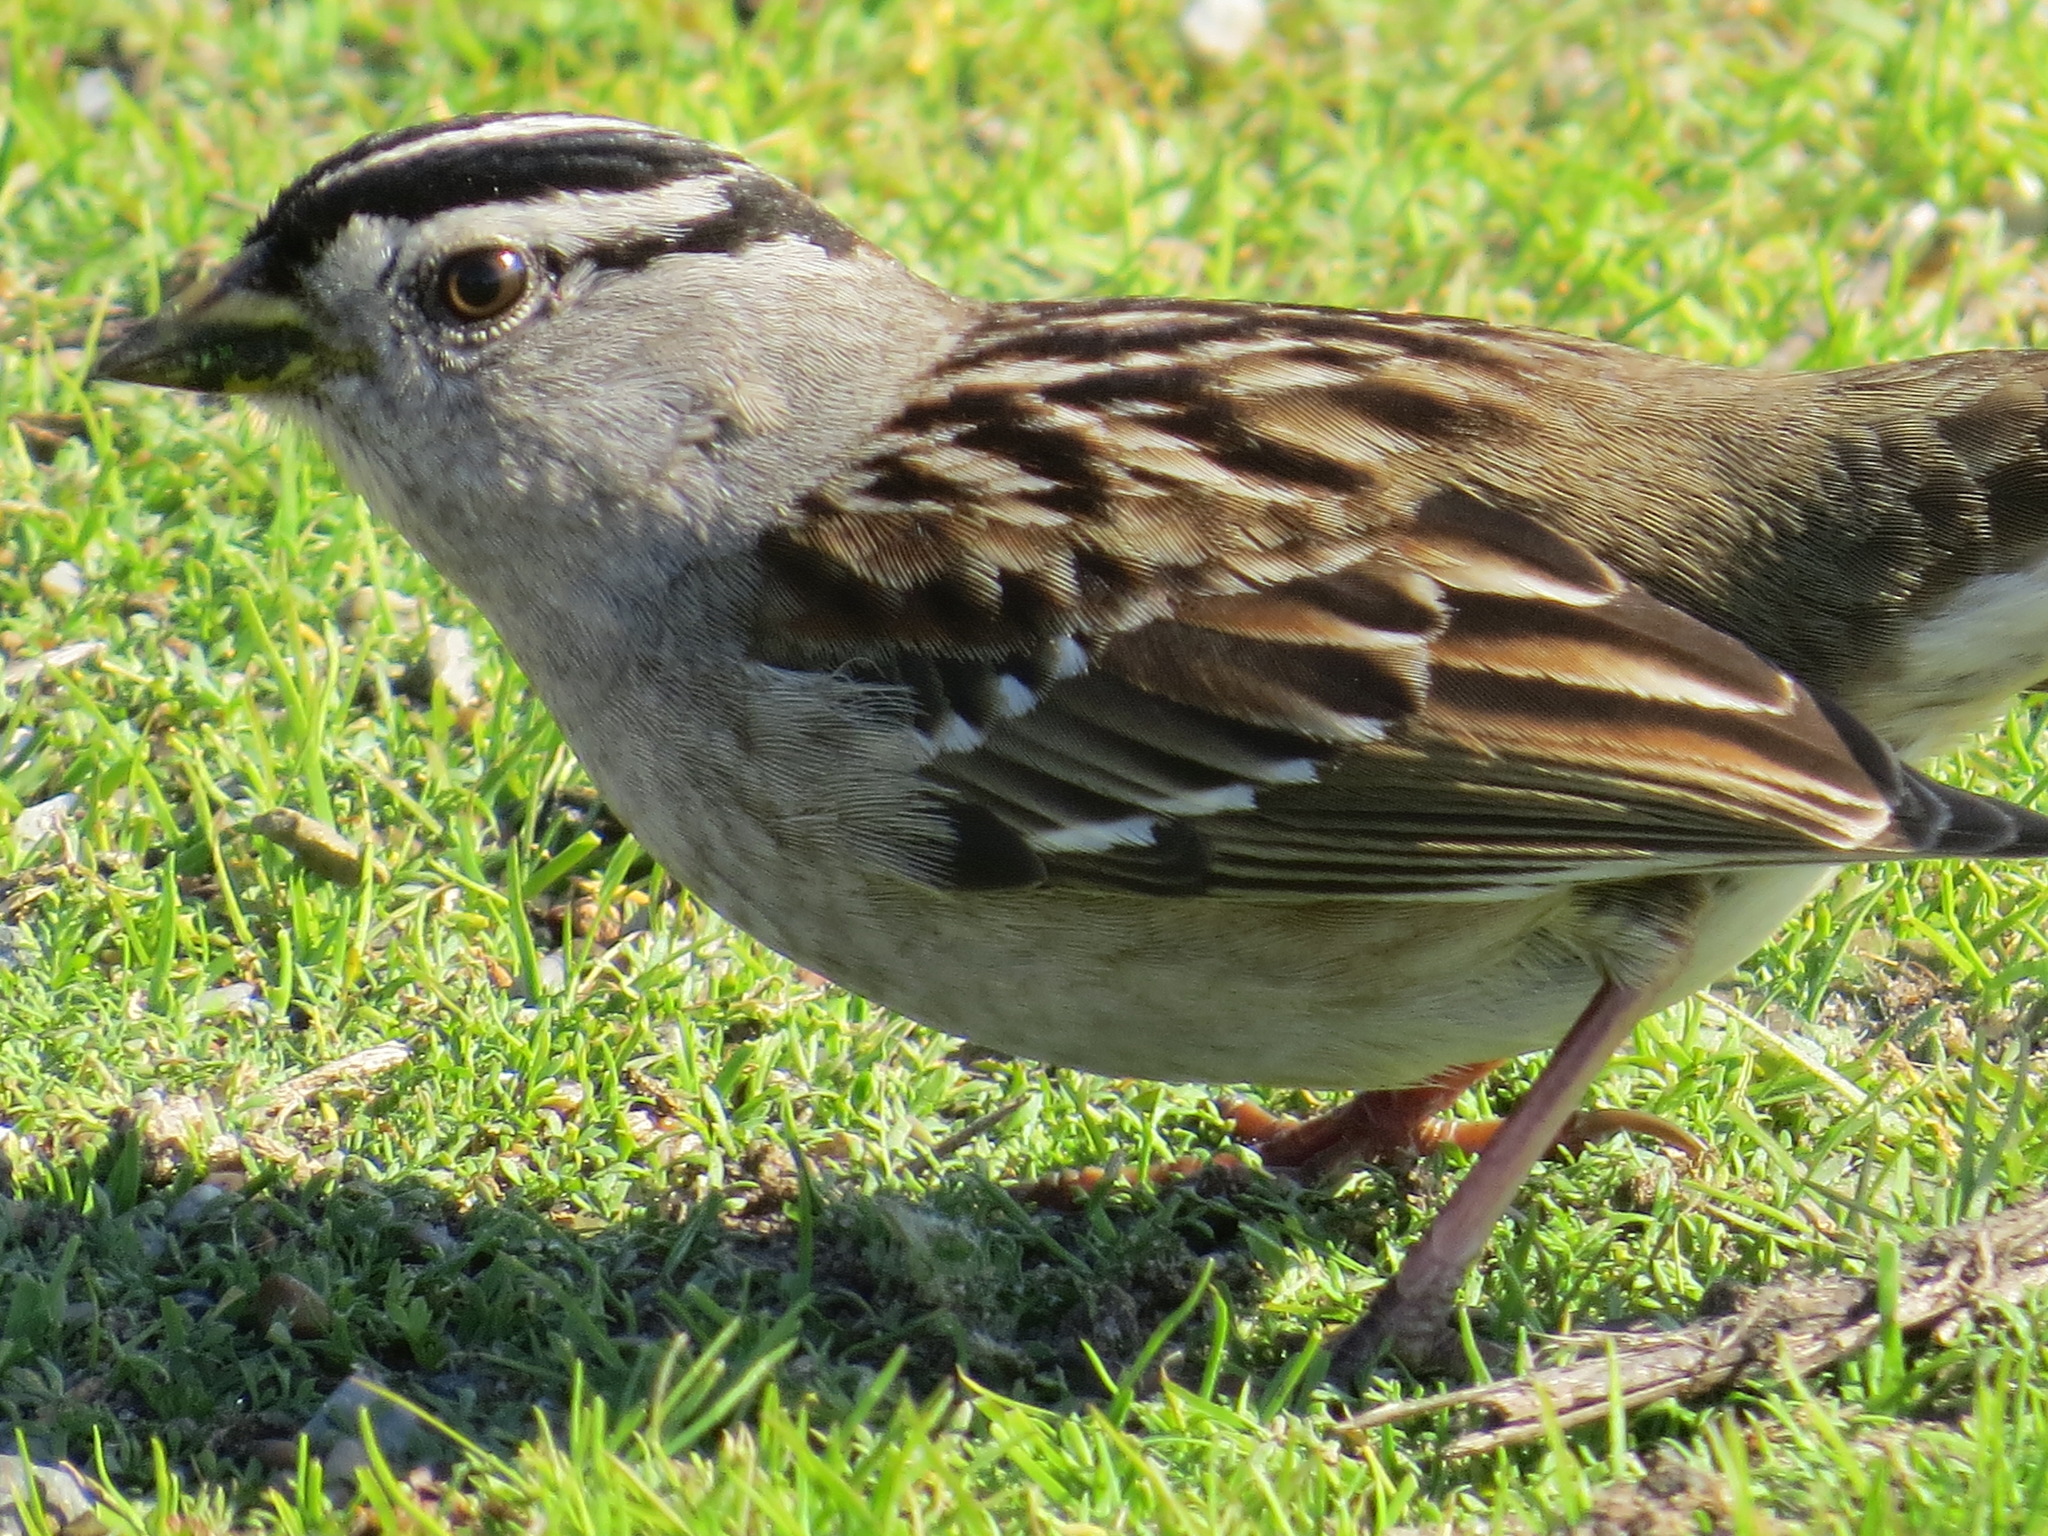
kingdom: Animalia
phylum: Chordata
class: Aves
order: Passeriformes
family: Passerellidae
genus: Zonotrichia
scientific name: Zonotrichia leucophrys
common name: White-crowned sparrow
